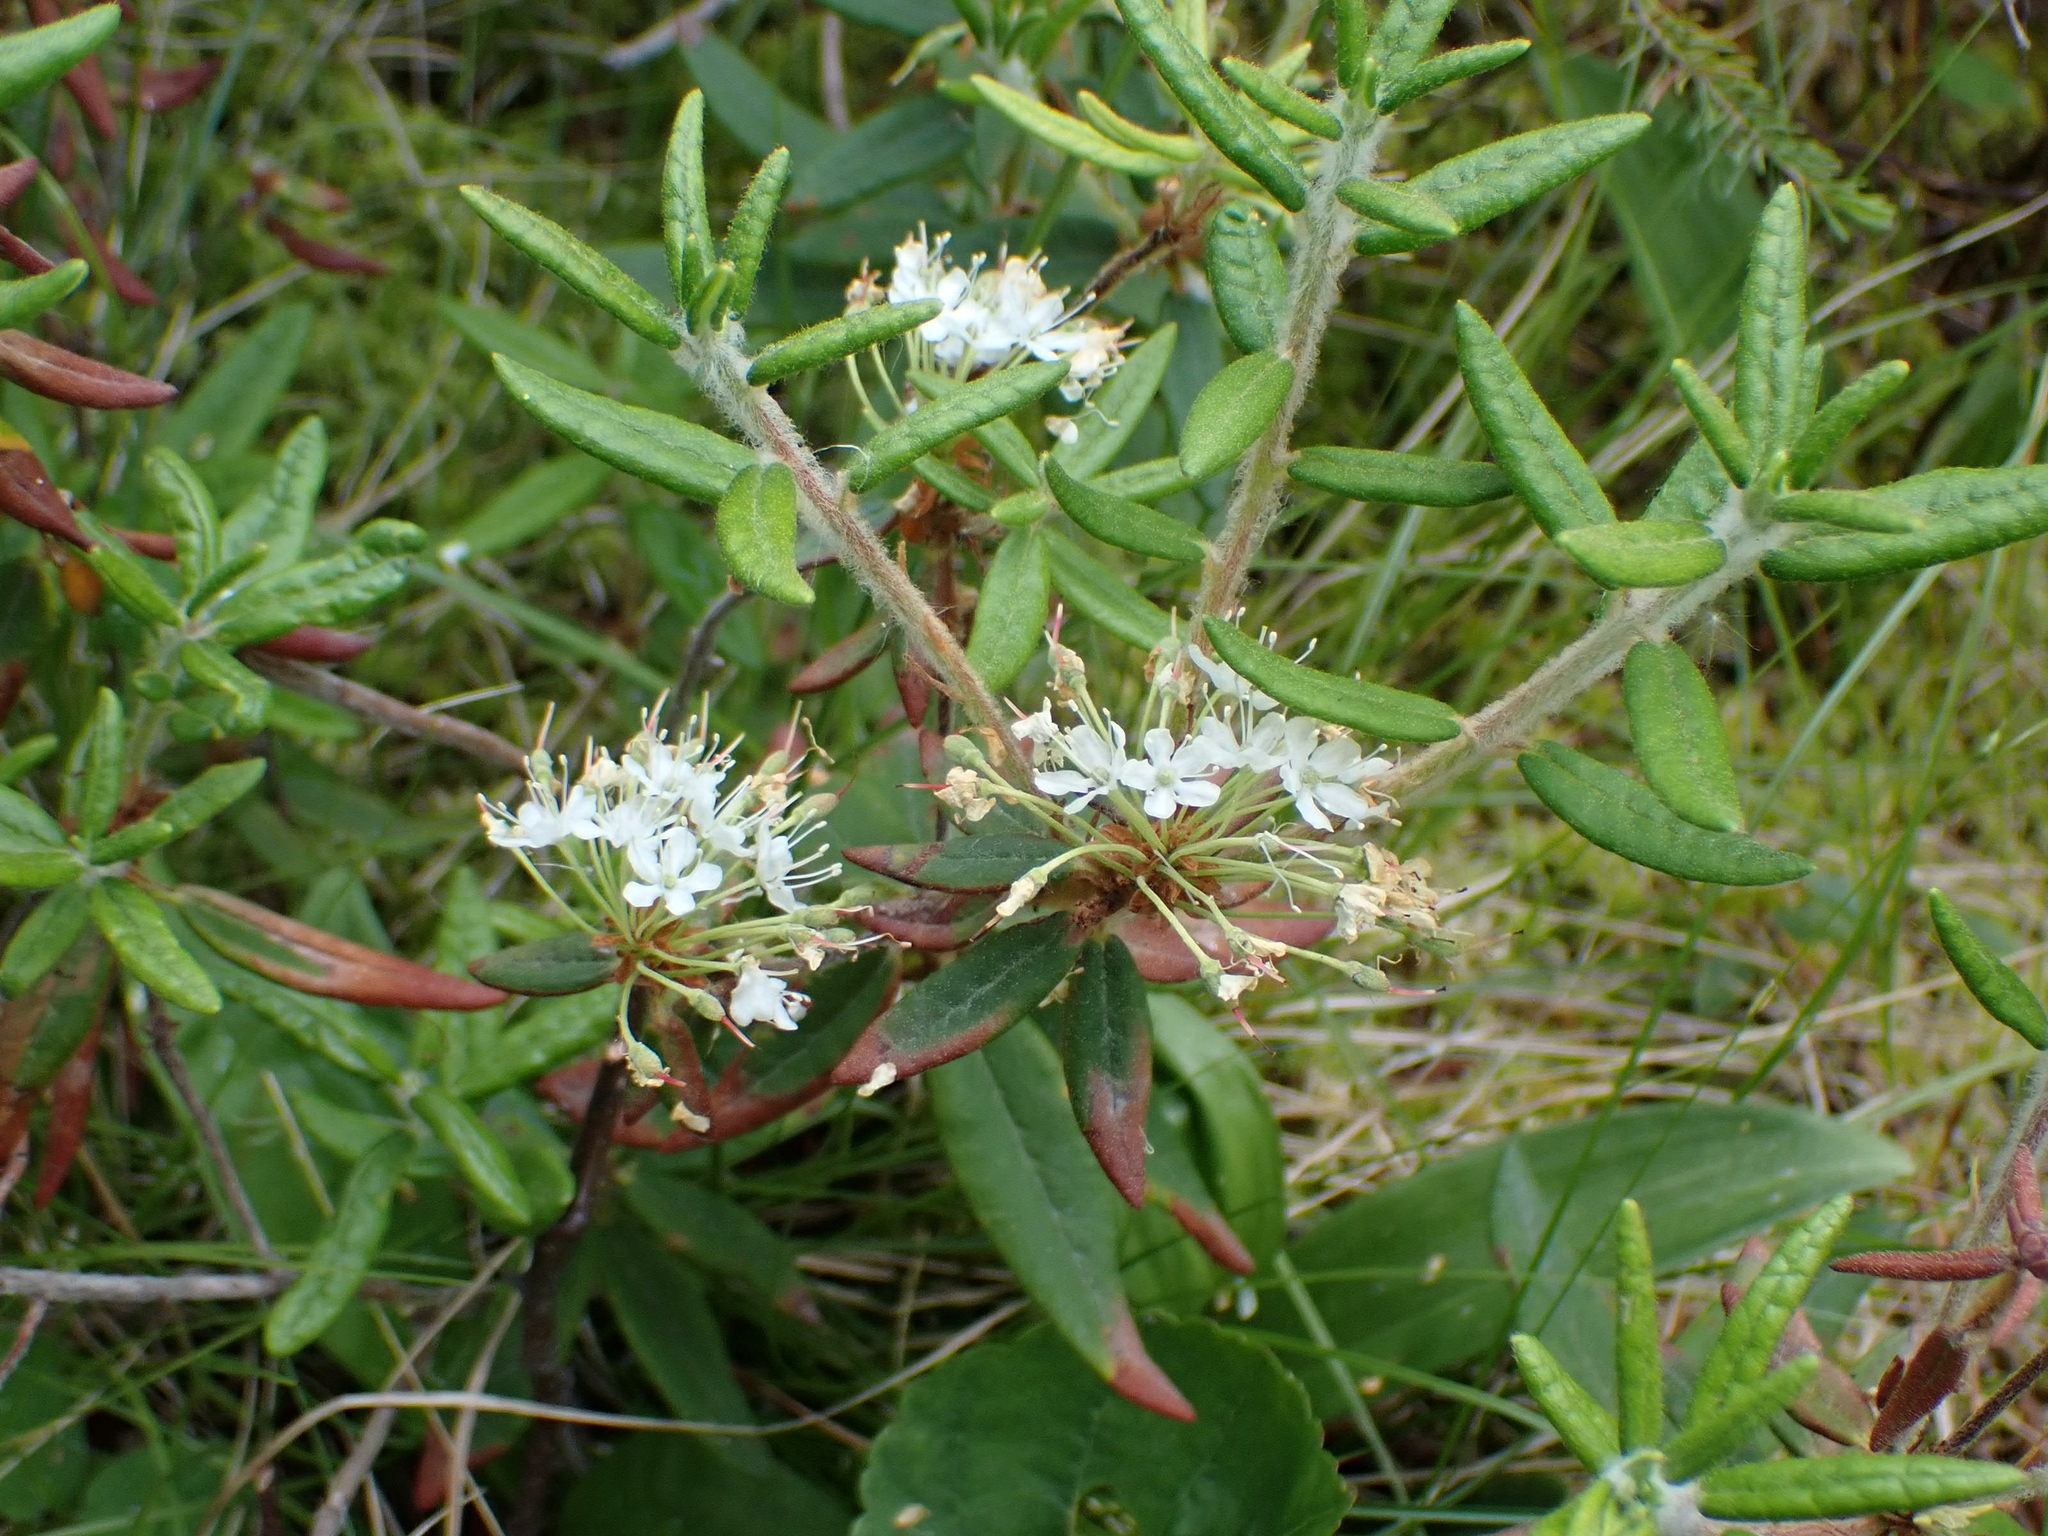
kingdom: Plantae
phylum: Tracheophyta
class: Magnoliopsida
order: Ericales
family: Ericaceae
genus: Rhododendron
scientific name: Rhododendron groenlandicum
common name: Bog labrador tea
